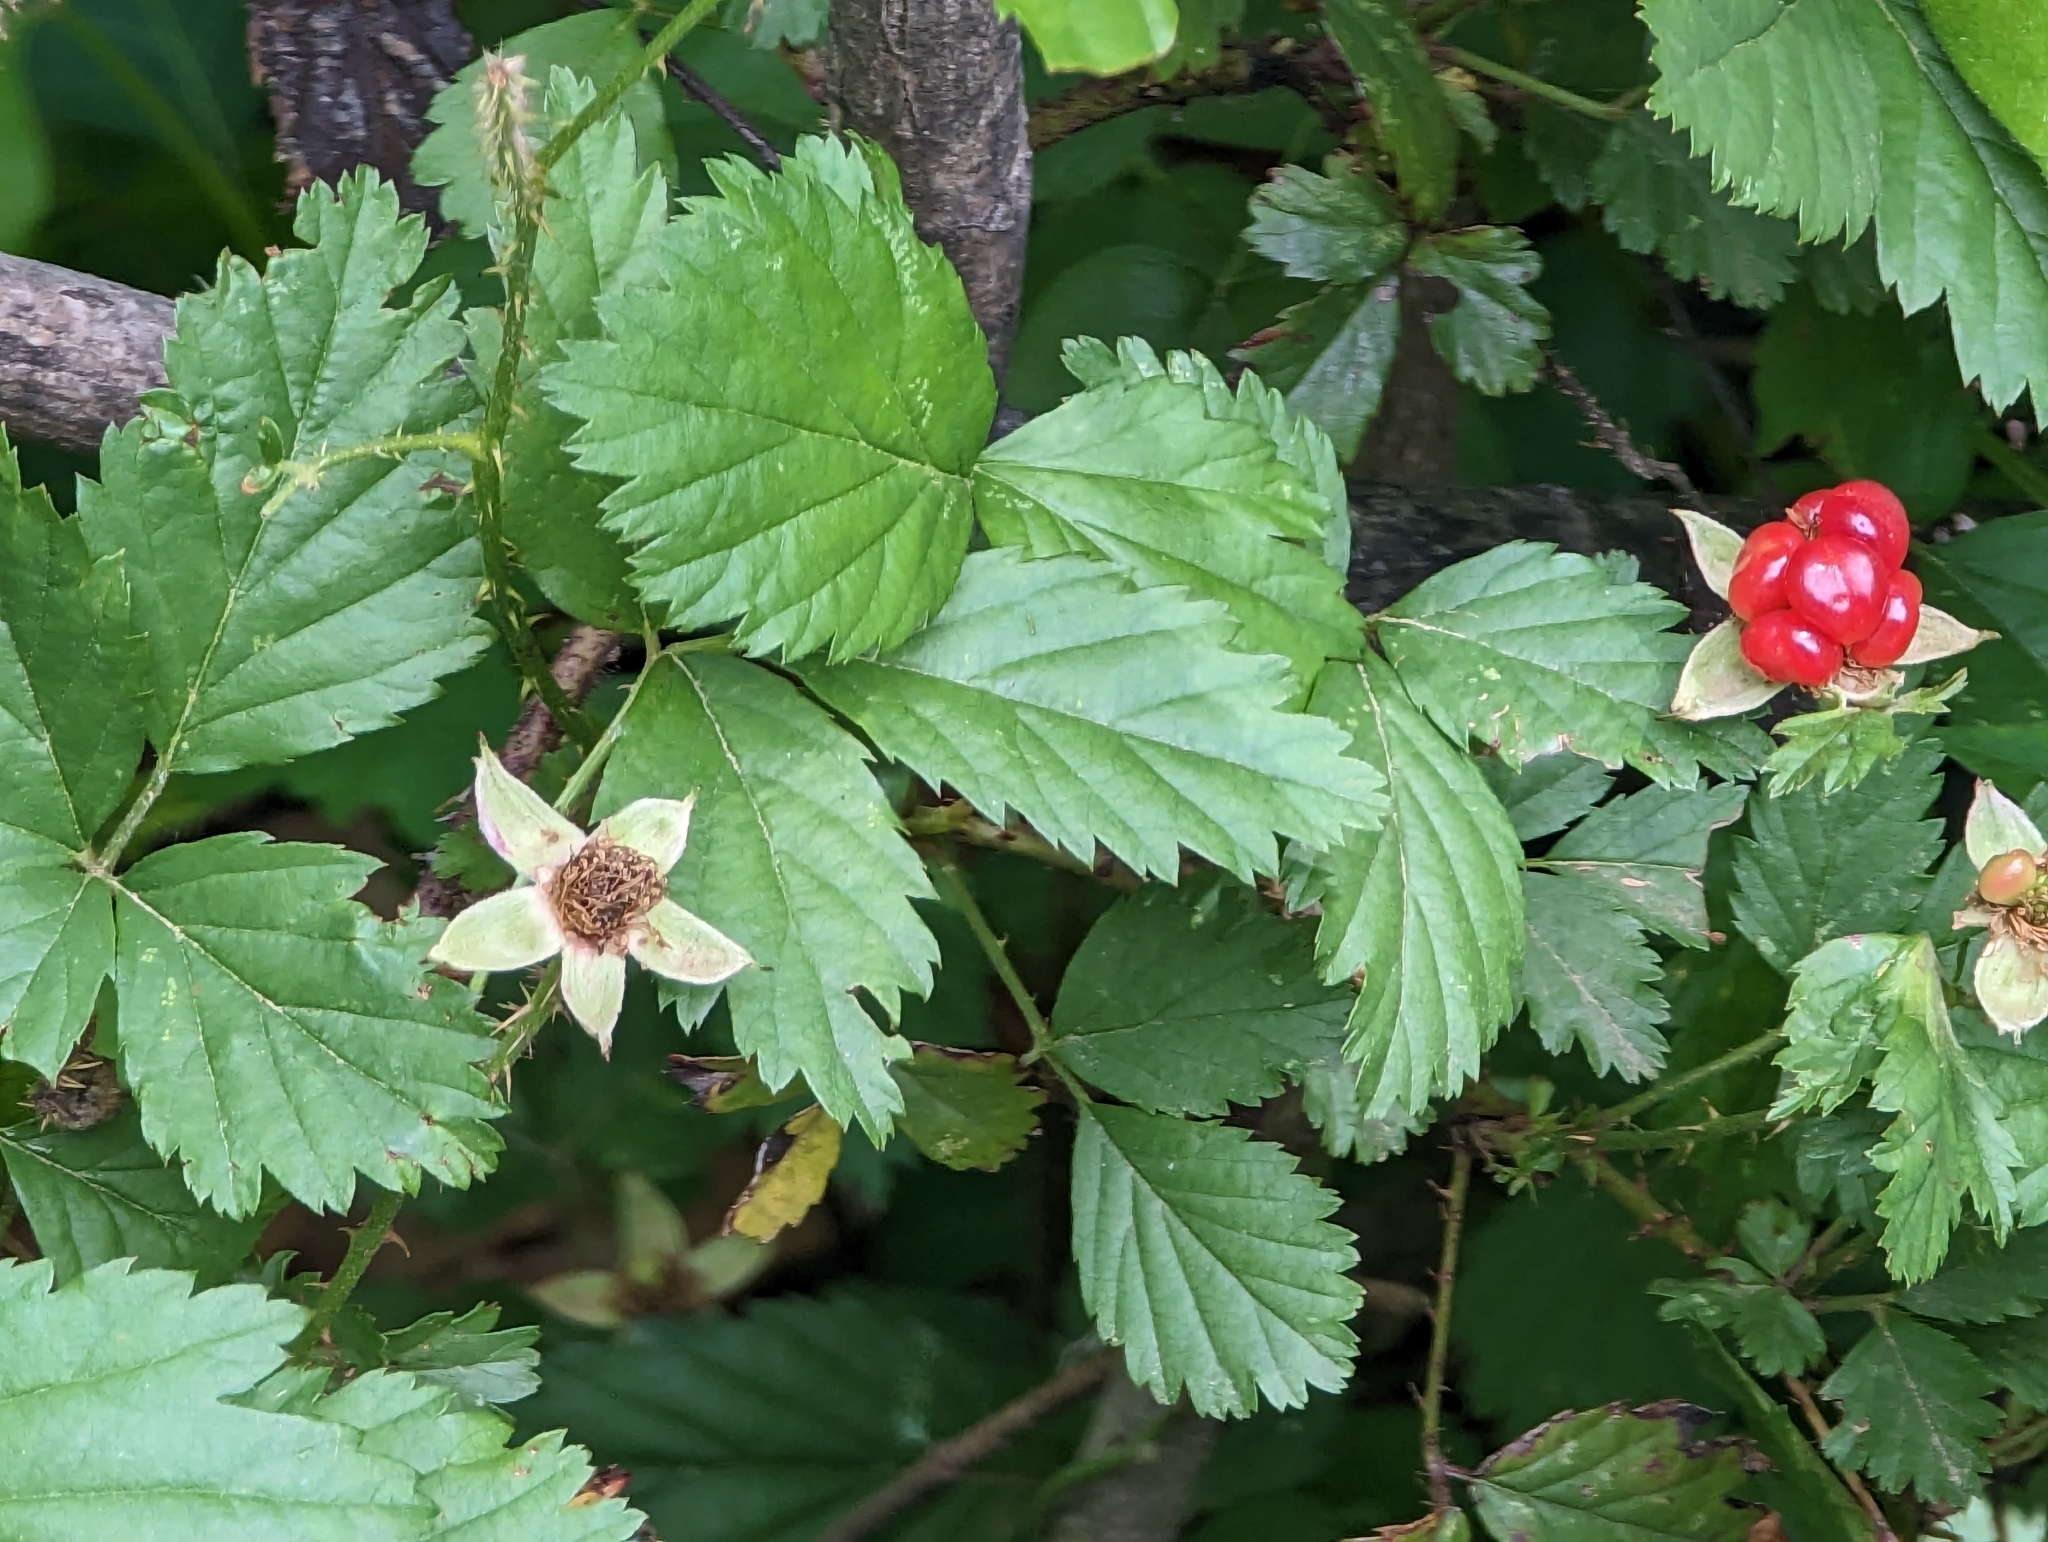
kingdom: Plantae
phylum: Tracheophyta
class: Magnoliopsida
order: Rosales
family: Rosaceae
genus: Rubus
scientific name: Rubus trivialis
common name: Southern dewberry
